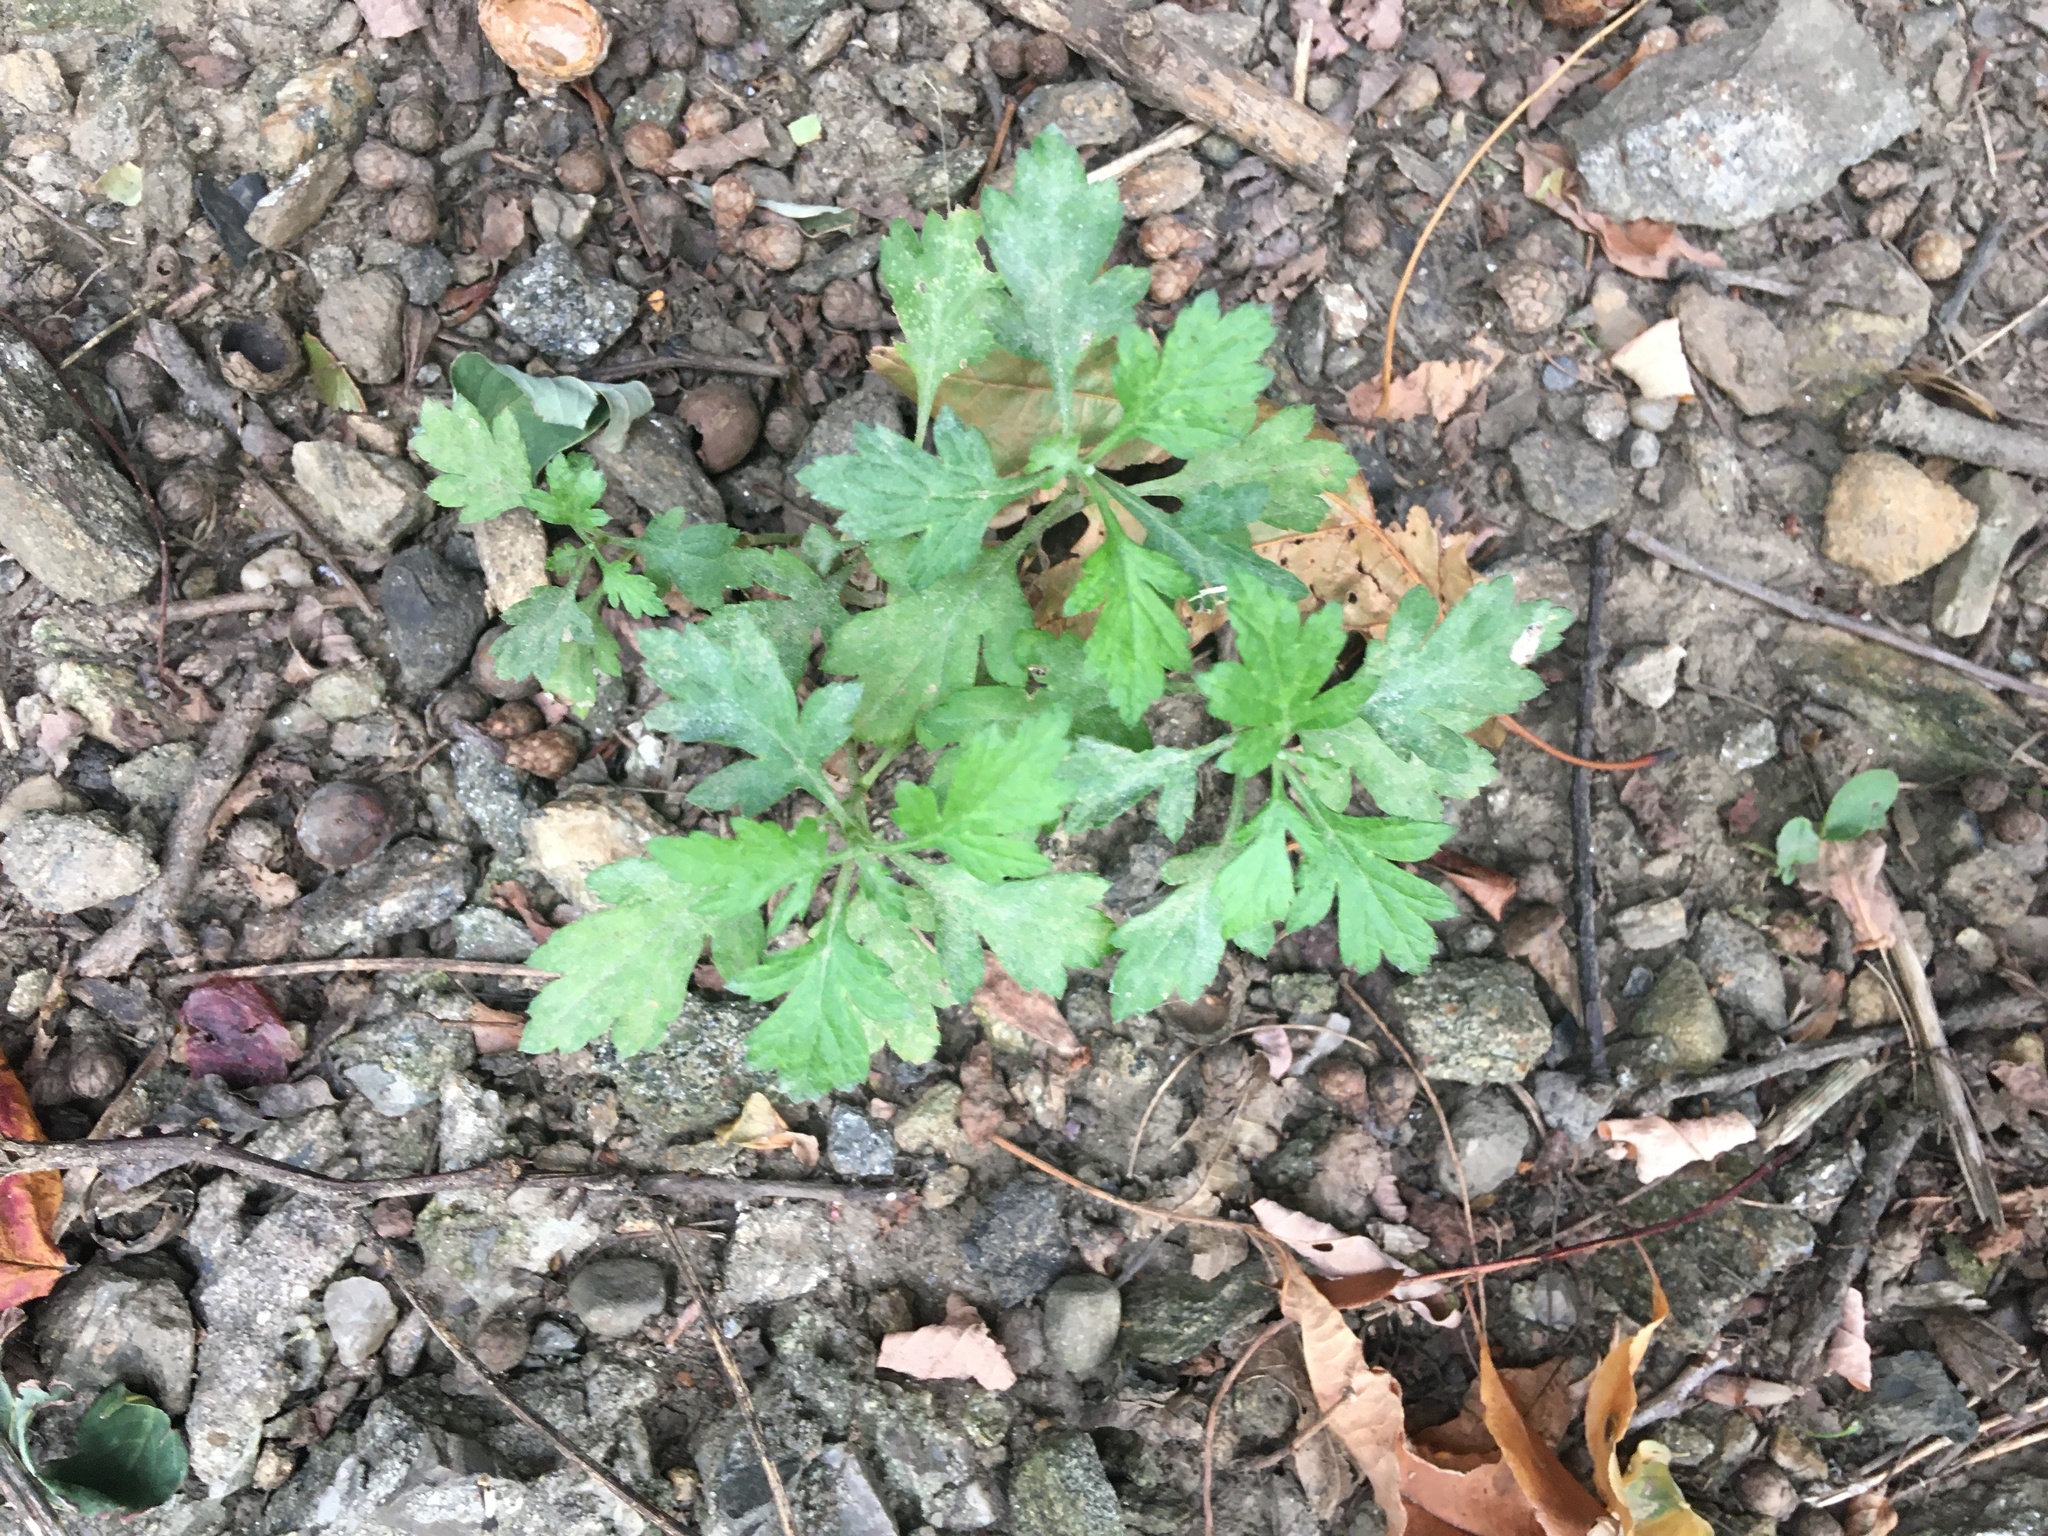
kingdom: Plantae
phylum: Tracheophyta
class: Magnoliopsida
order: Asterales
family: Asteraceae
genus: Artemisia
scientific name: Artemisia vulgaris
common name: Mugwort
